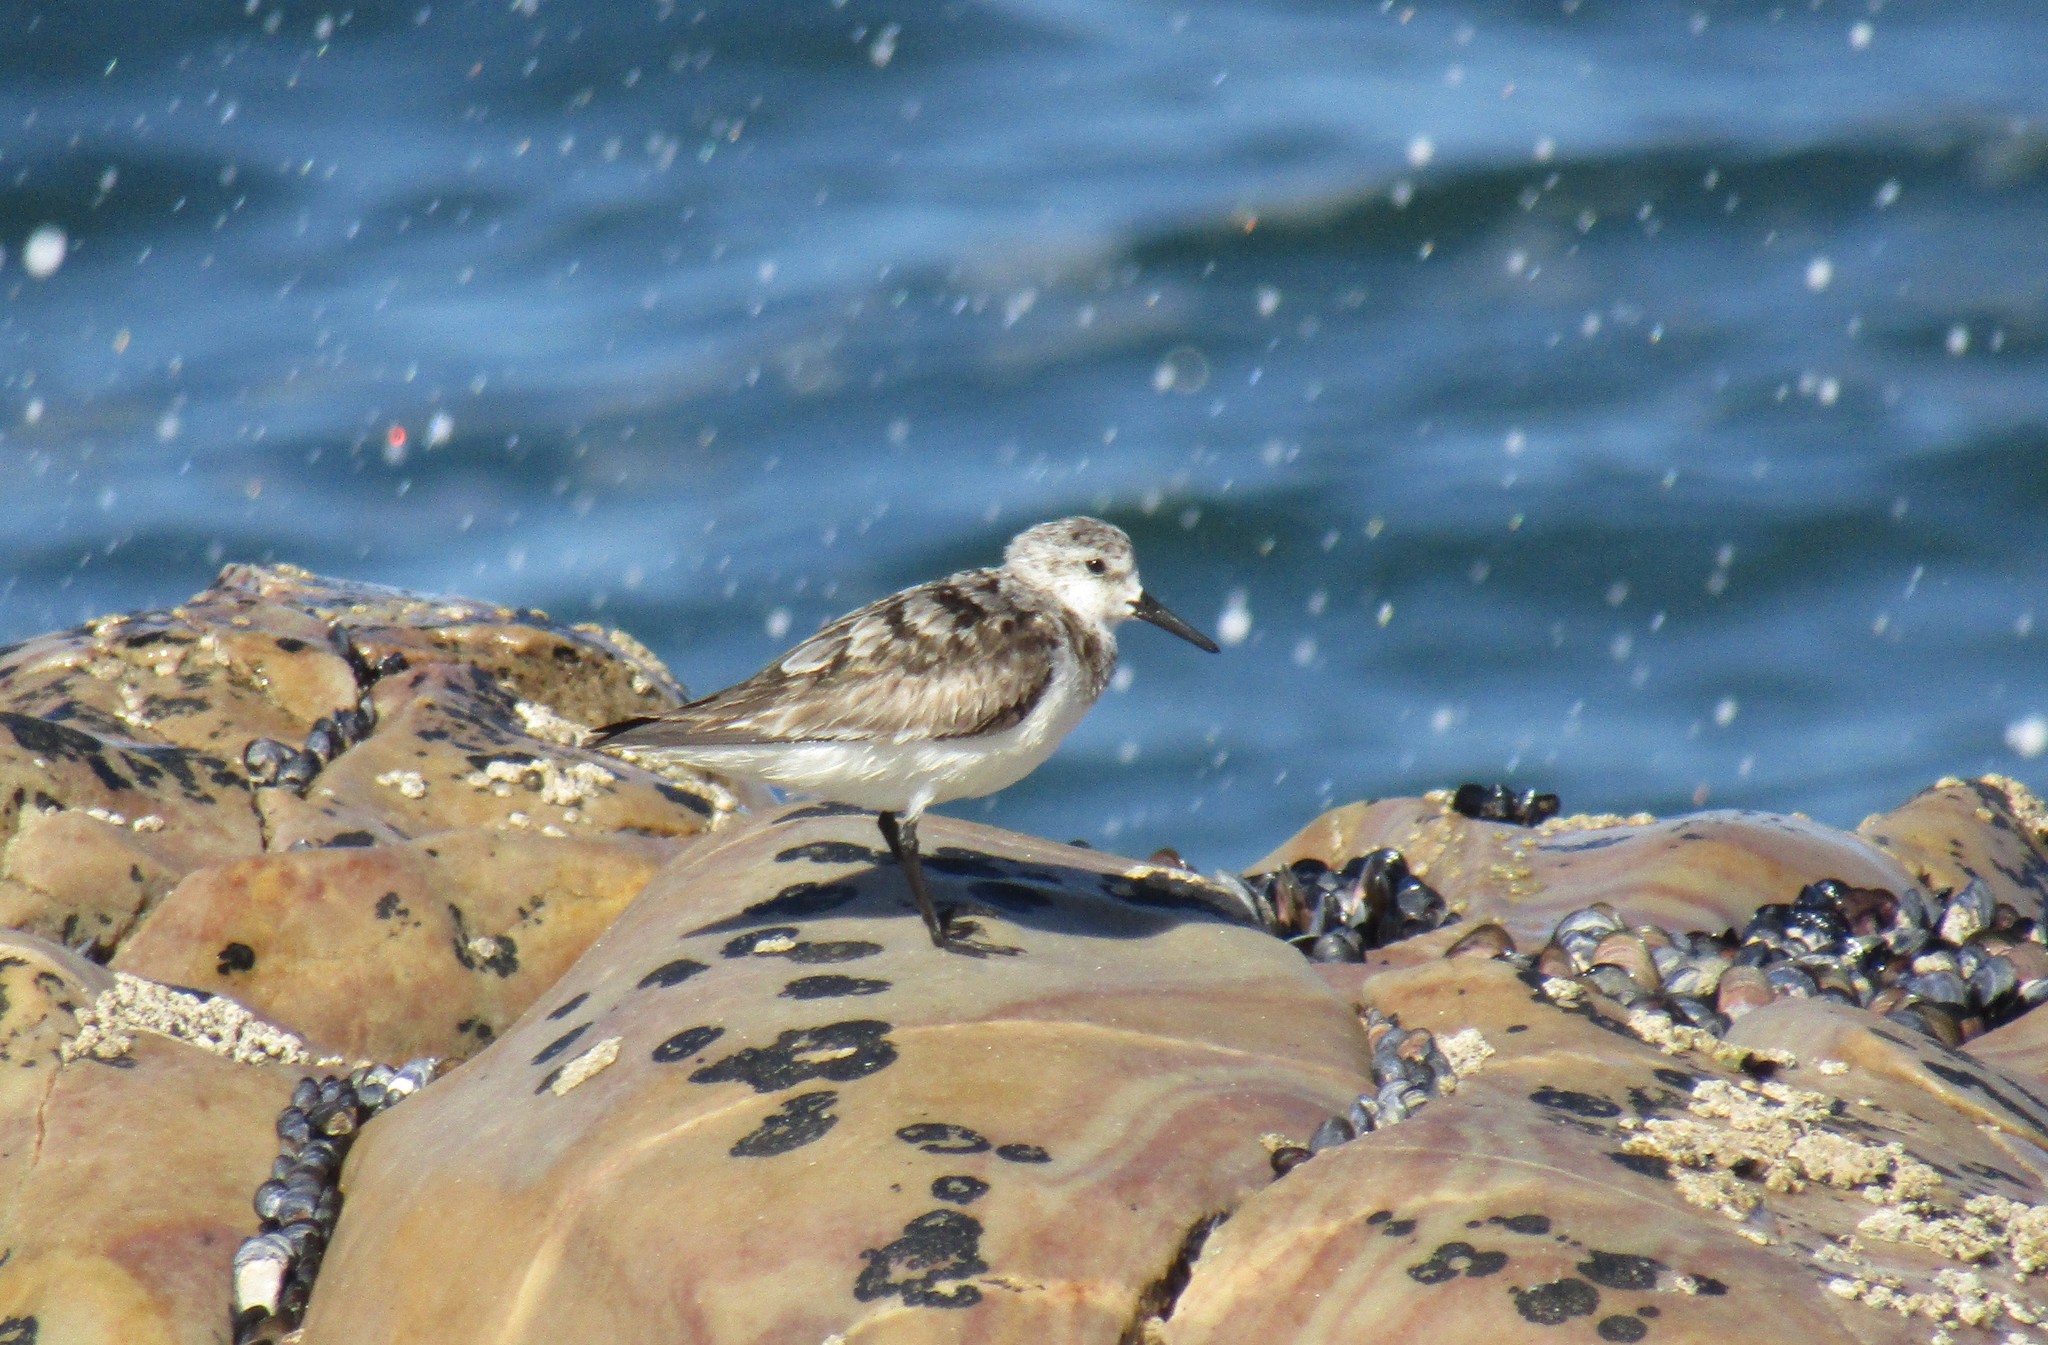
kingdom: Animalia
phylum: Chordata
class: Aves
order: Charadriiformes
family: Scolopacidae
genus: Calidris
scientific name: Calidris alba
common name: Sanderling
